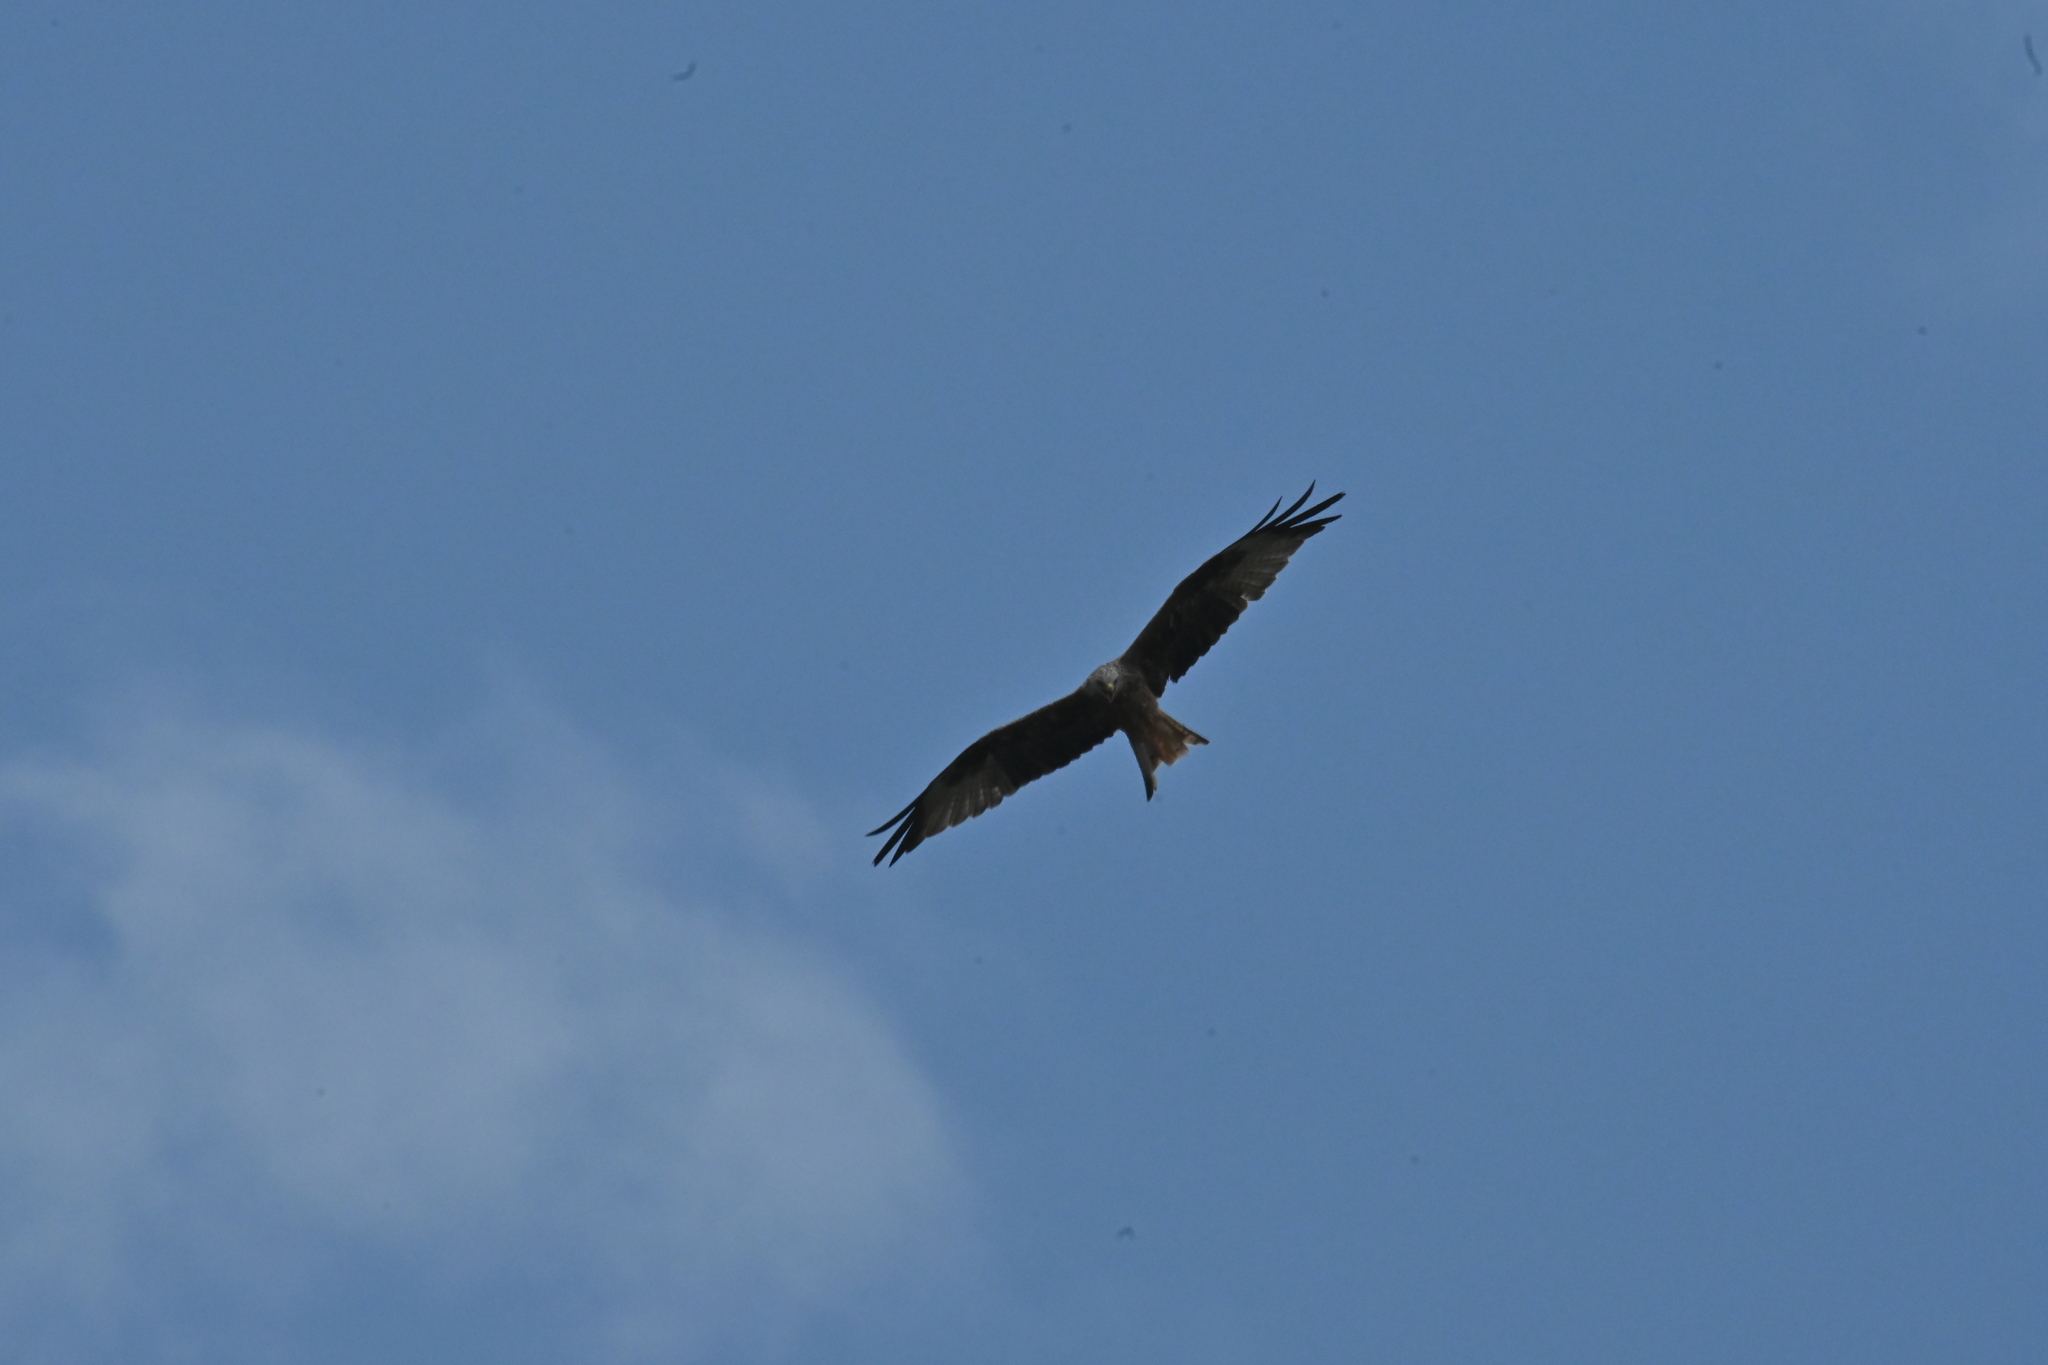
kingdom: Animalia
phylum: Chordata
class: Aves
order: Accipitriformes
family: Accipitridae
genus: Milvus
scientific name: Milvus milvus
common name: Red kite
